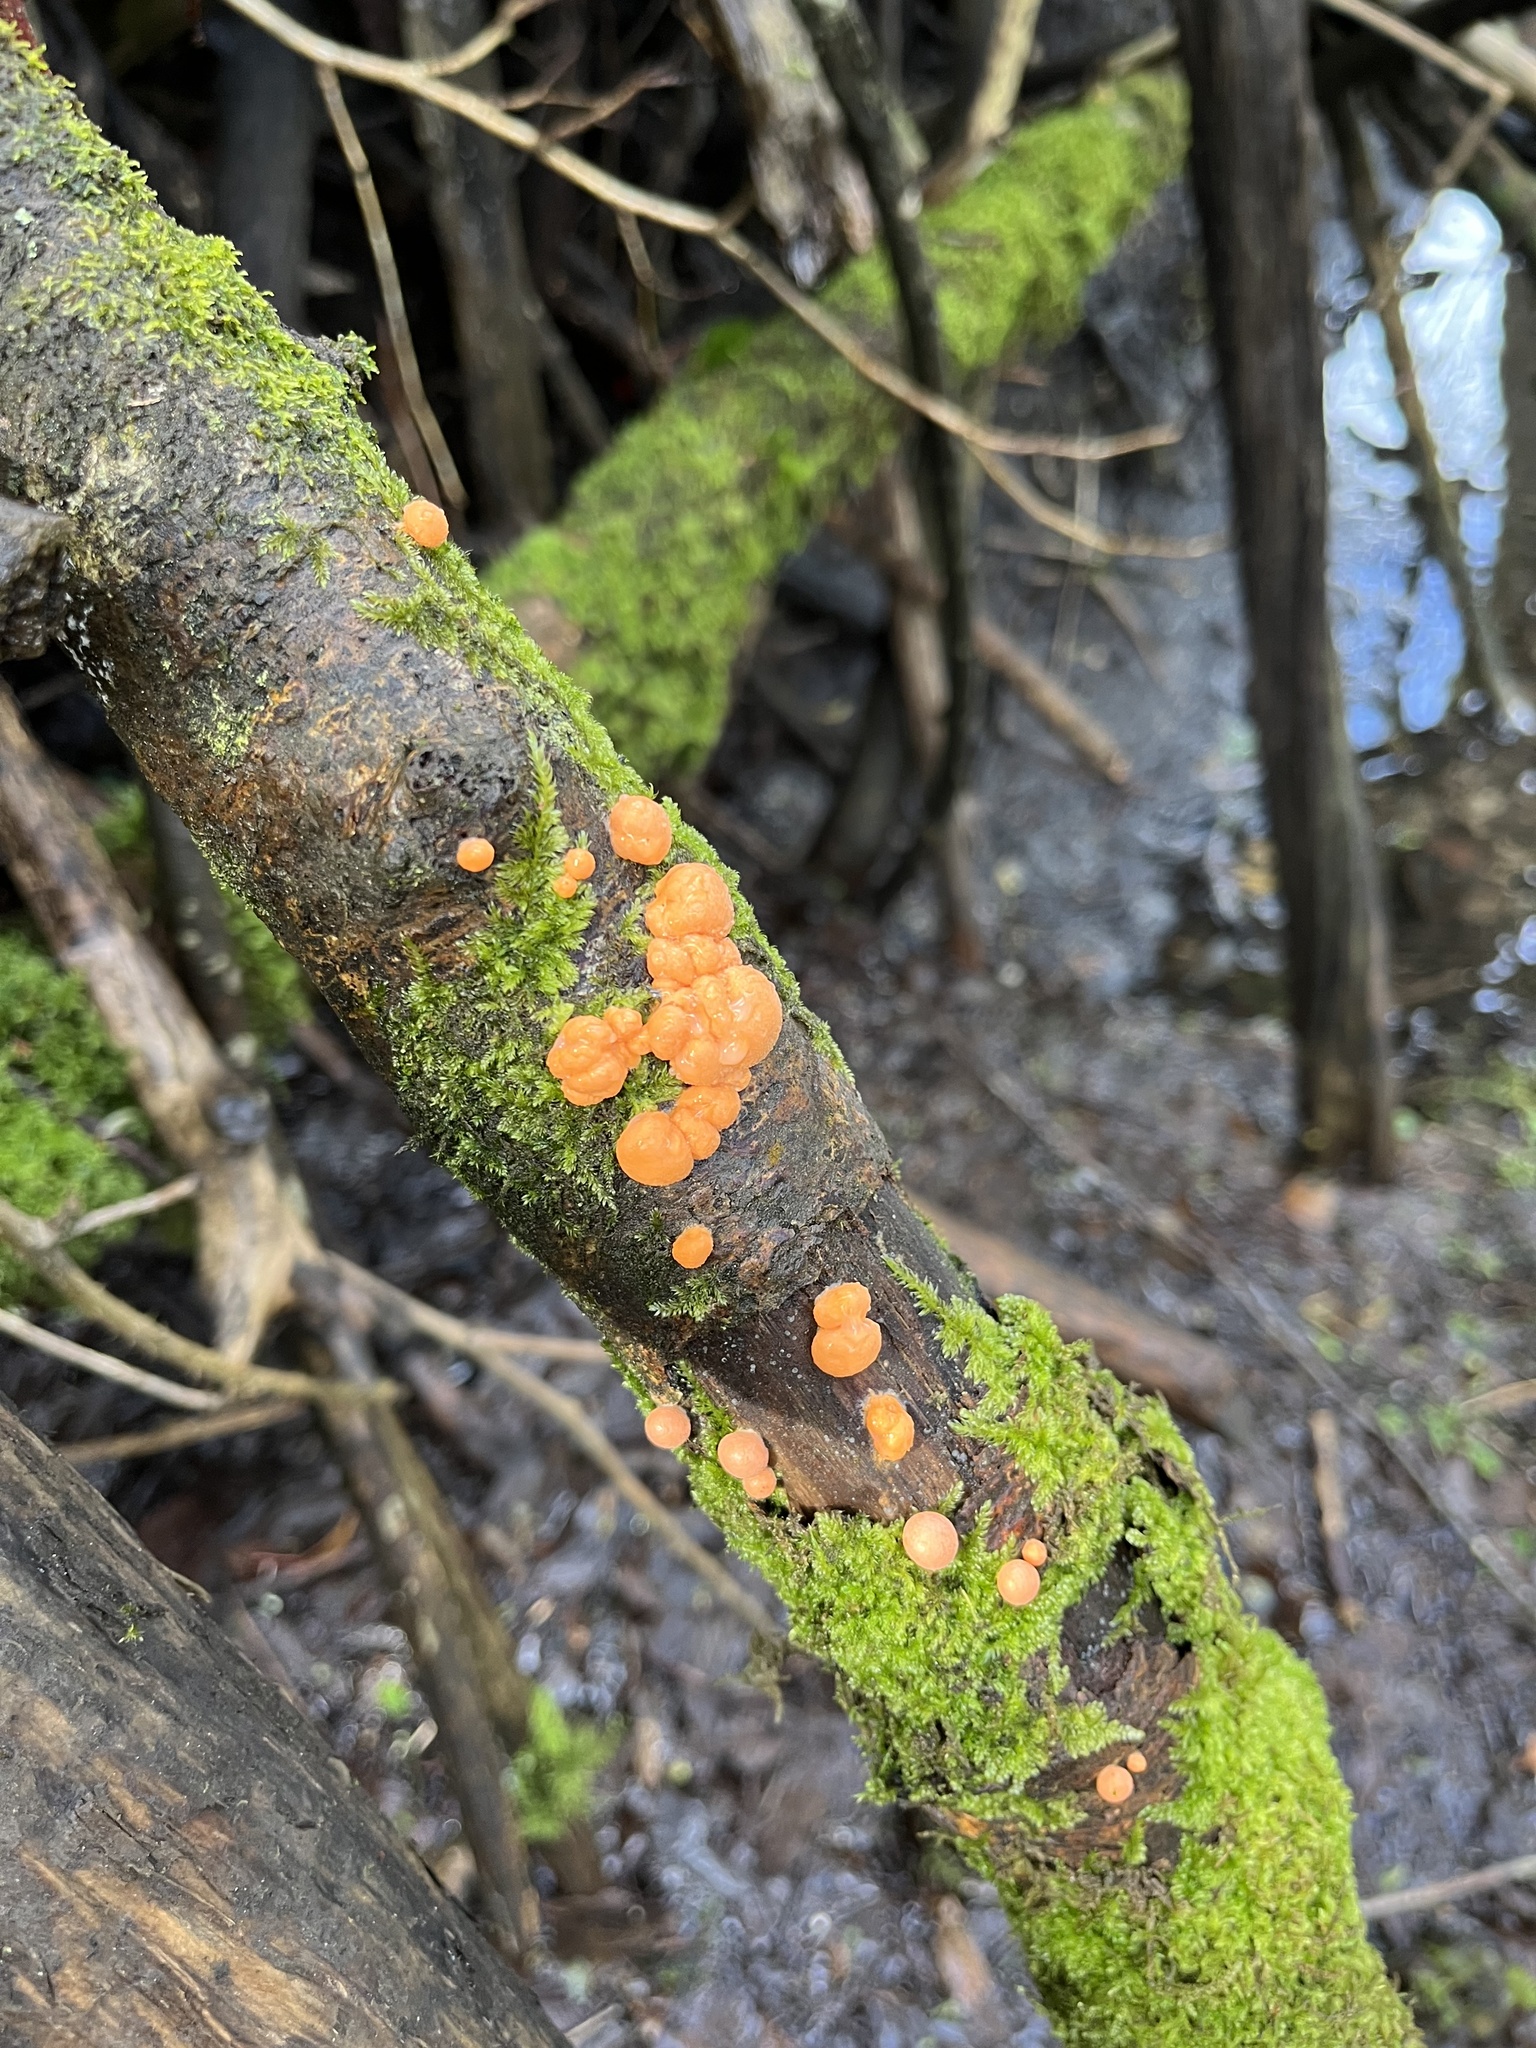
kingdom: Fungi
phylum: Basidiomycota
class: Dacrymycetes
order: Dacrymycetales
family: Dacrymycetaceae
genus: Dacrymyces
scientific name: Dacrymyces stillatus
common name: Common jelly spot
